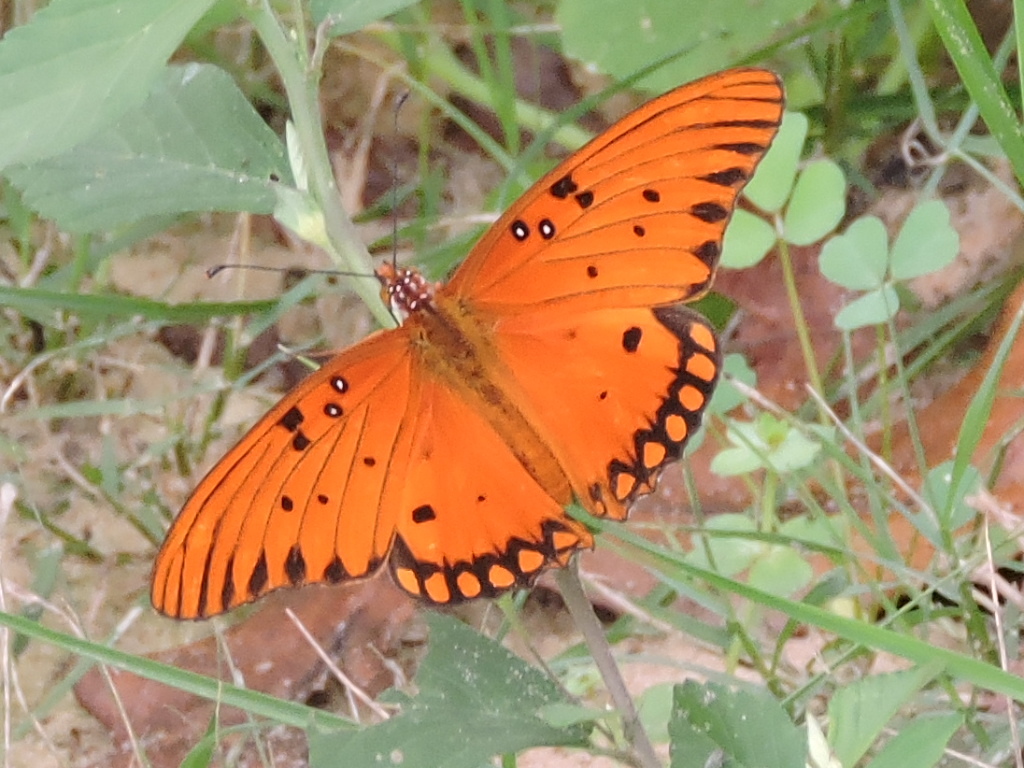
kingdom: Animalia
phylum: Arthropoda
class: Insecta
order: Lepidoptera
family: Nymphalidae
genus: Dione
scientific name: Dione vanillae
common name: Gulf fritillary
